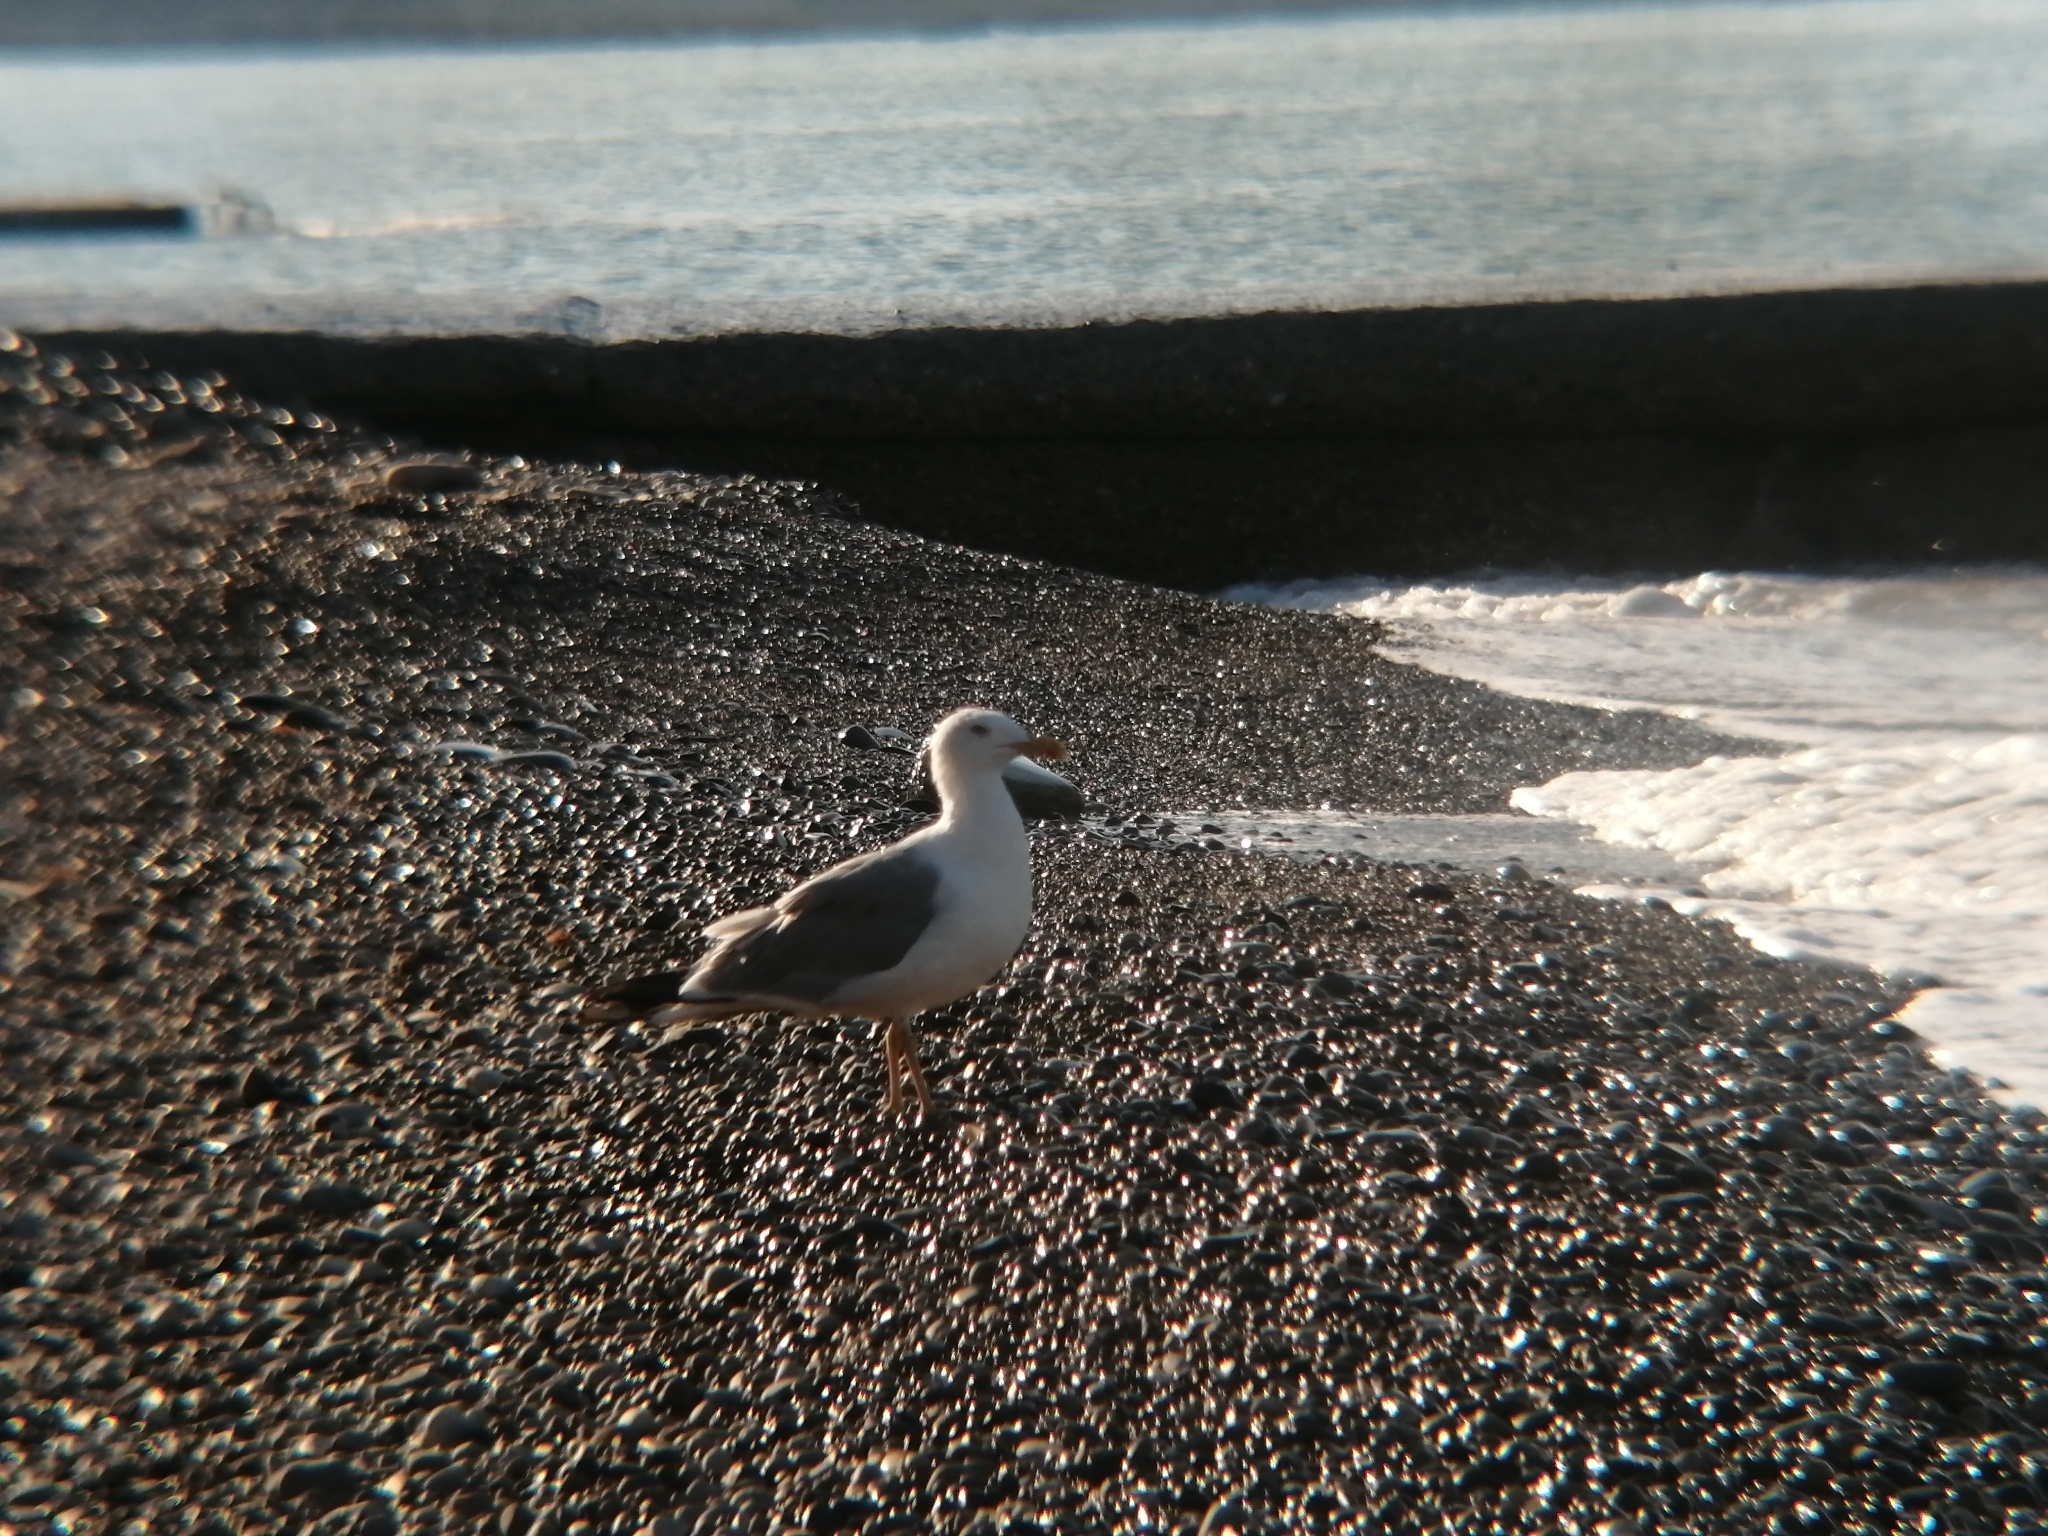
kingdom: Animalia
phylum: Chordata
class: Aves
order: Charadriiformes
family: Laridae
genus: Larus
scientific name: Larus michahellis
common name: Yellow-legged gull
